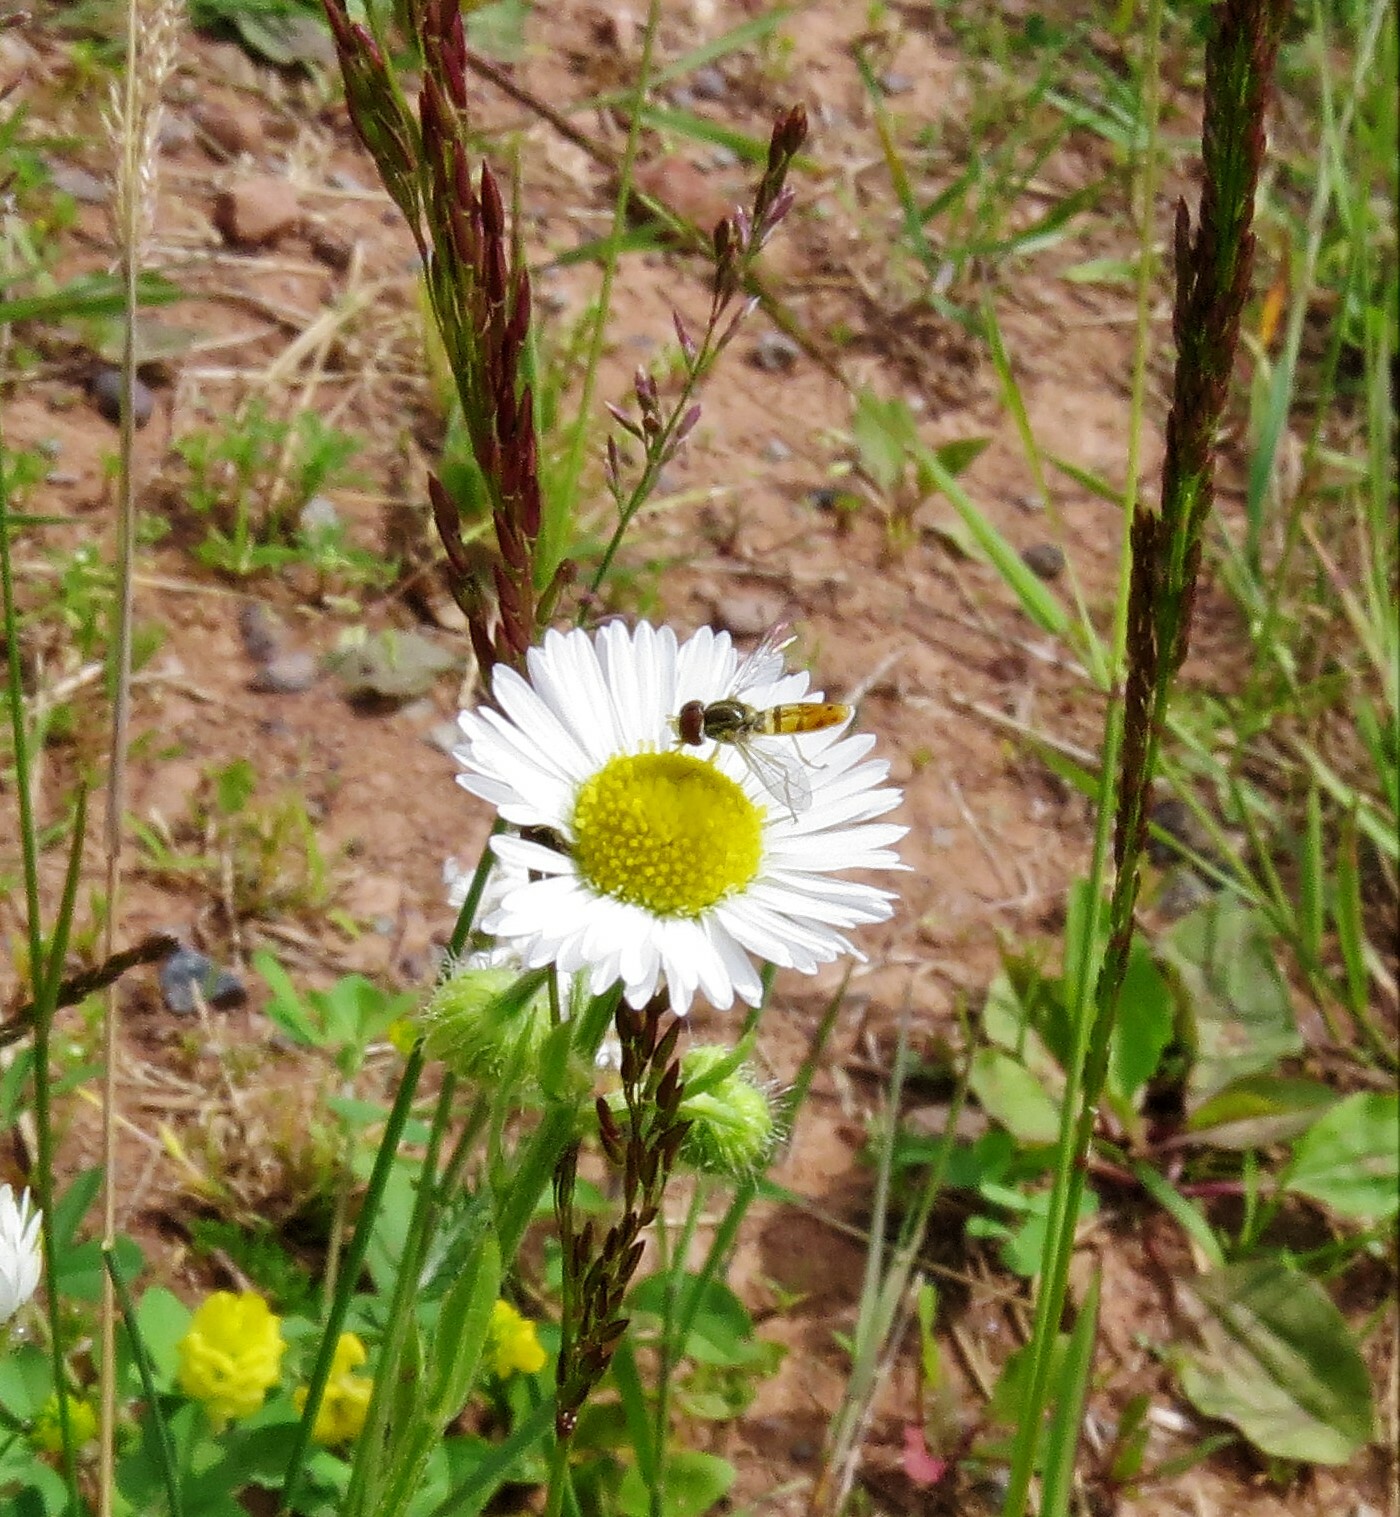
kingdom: Animalia
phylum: Arthropoda
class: Insecta
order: Diptera
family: Syrphidae
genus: Toxomerus
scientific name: Toxomerus marginatus
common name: Syrphid fly
